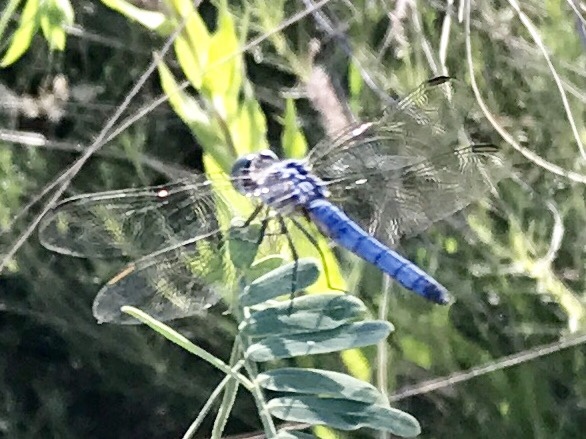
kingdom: Animalia
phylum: Arthropoda
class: Insecta
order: Odonata
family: Libellulidae
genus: Pachydiplax
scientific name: Pachydiplax longipennis
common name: Blue dasher
